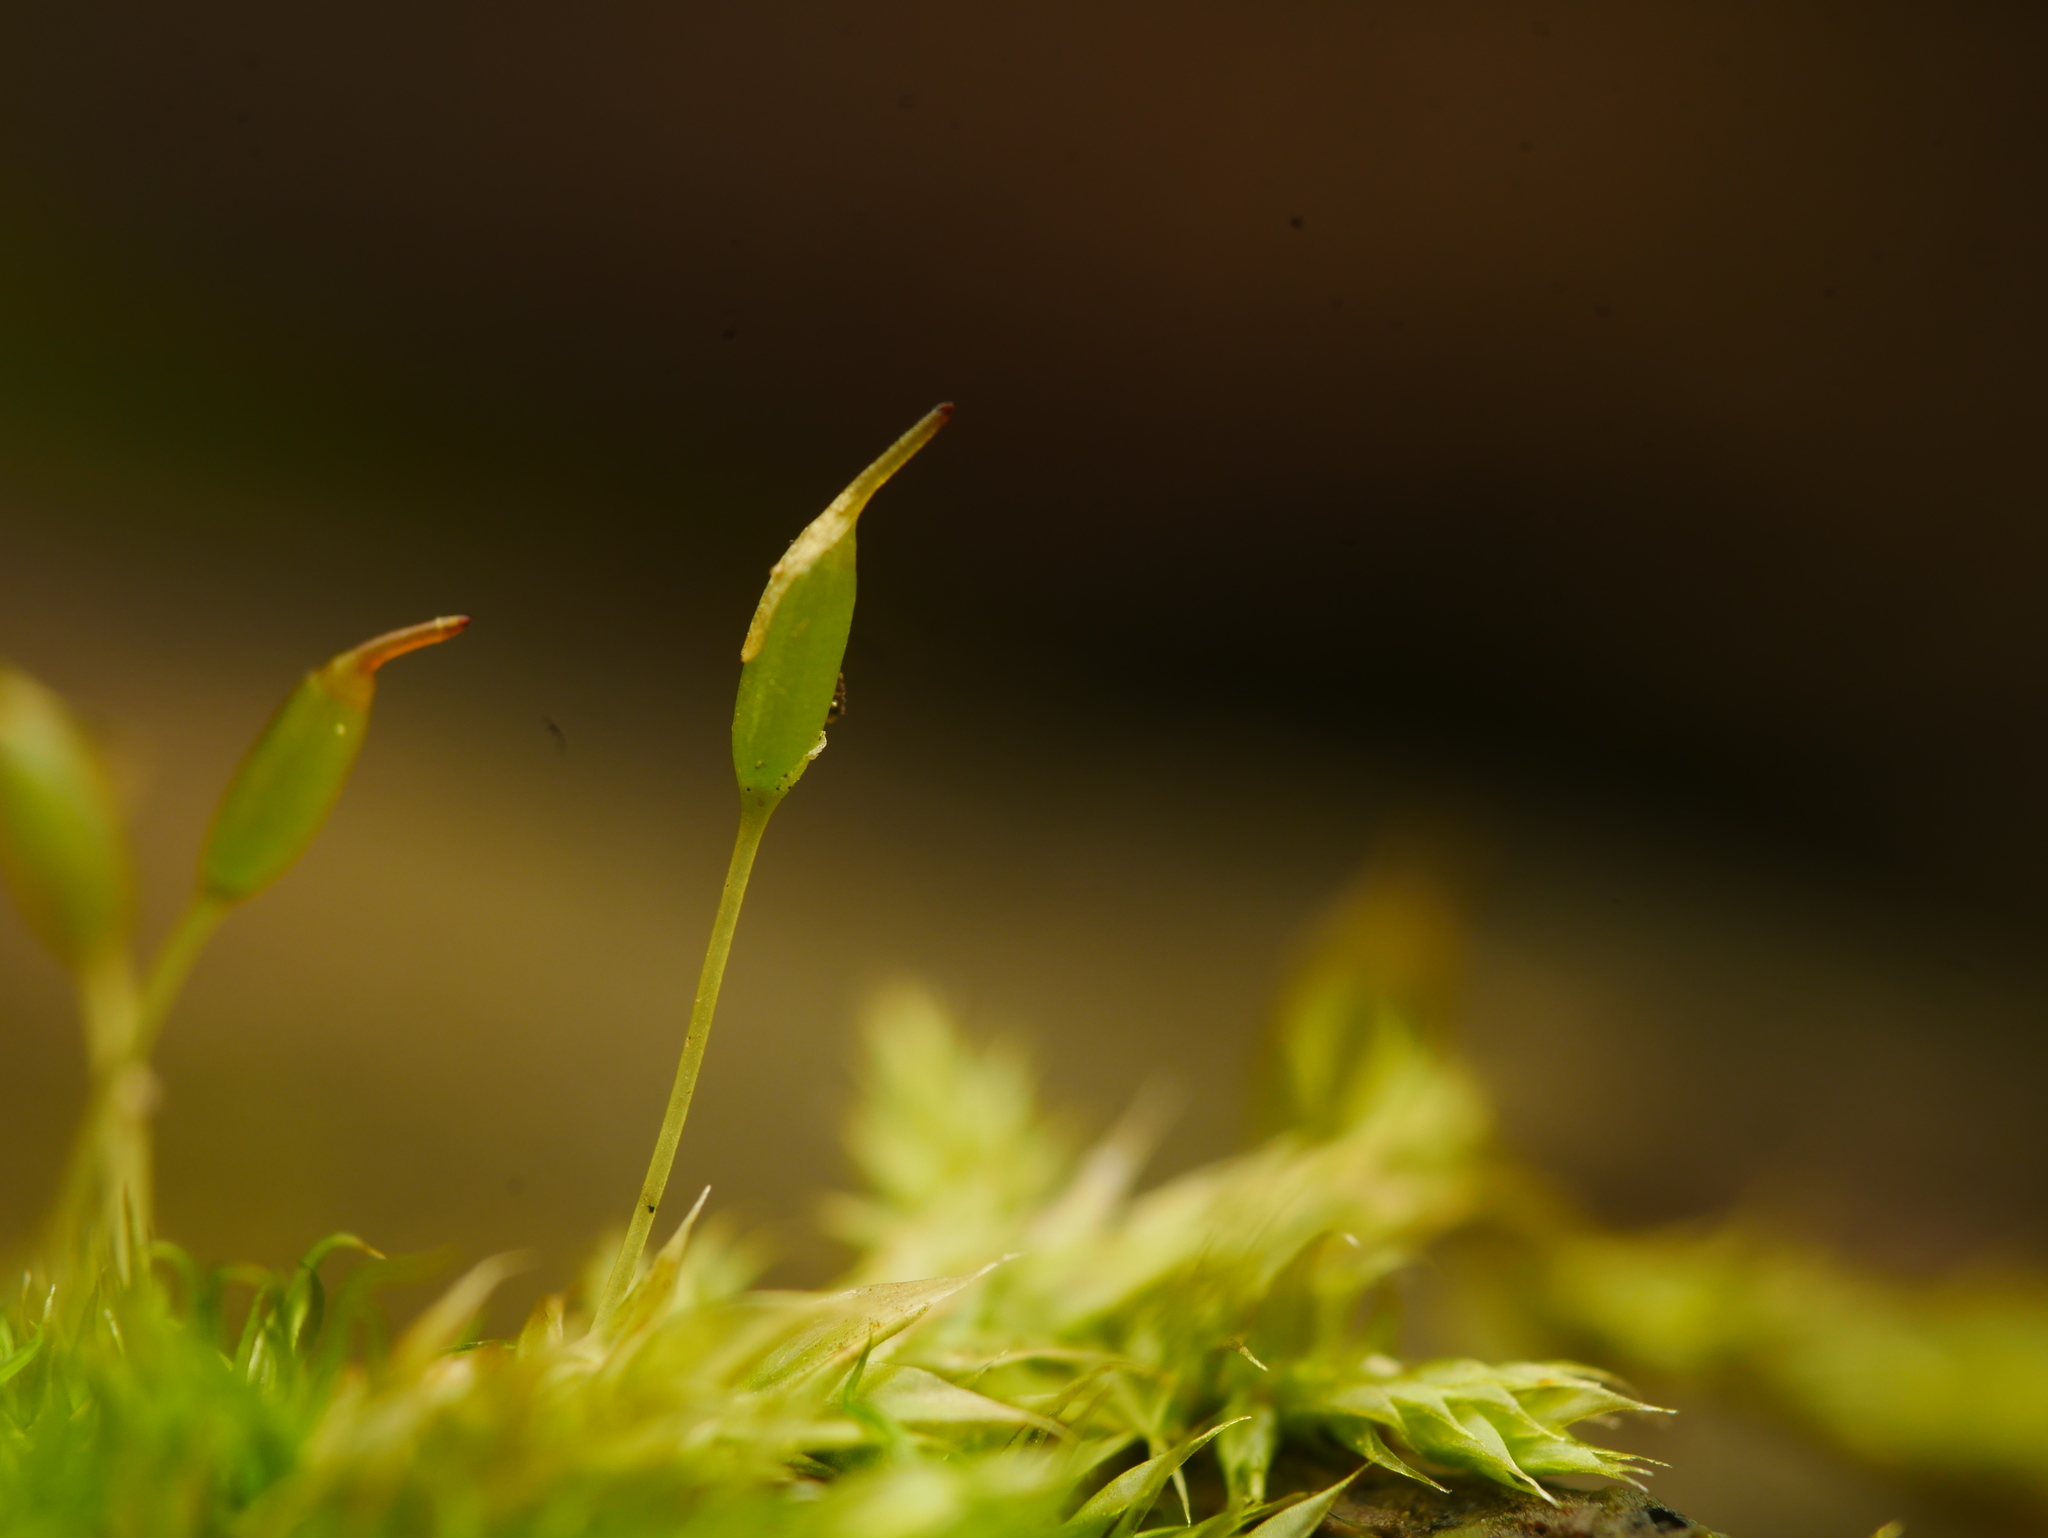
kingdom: Plantae
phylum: Bryophyta
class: Bryopsida
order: Dicranales
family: Rhabdoweisiaceae
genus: Dicranoweisia
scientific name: Dicranoweisia cirrata
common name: Common pincushion
